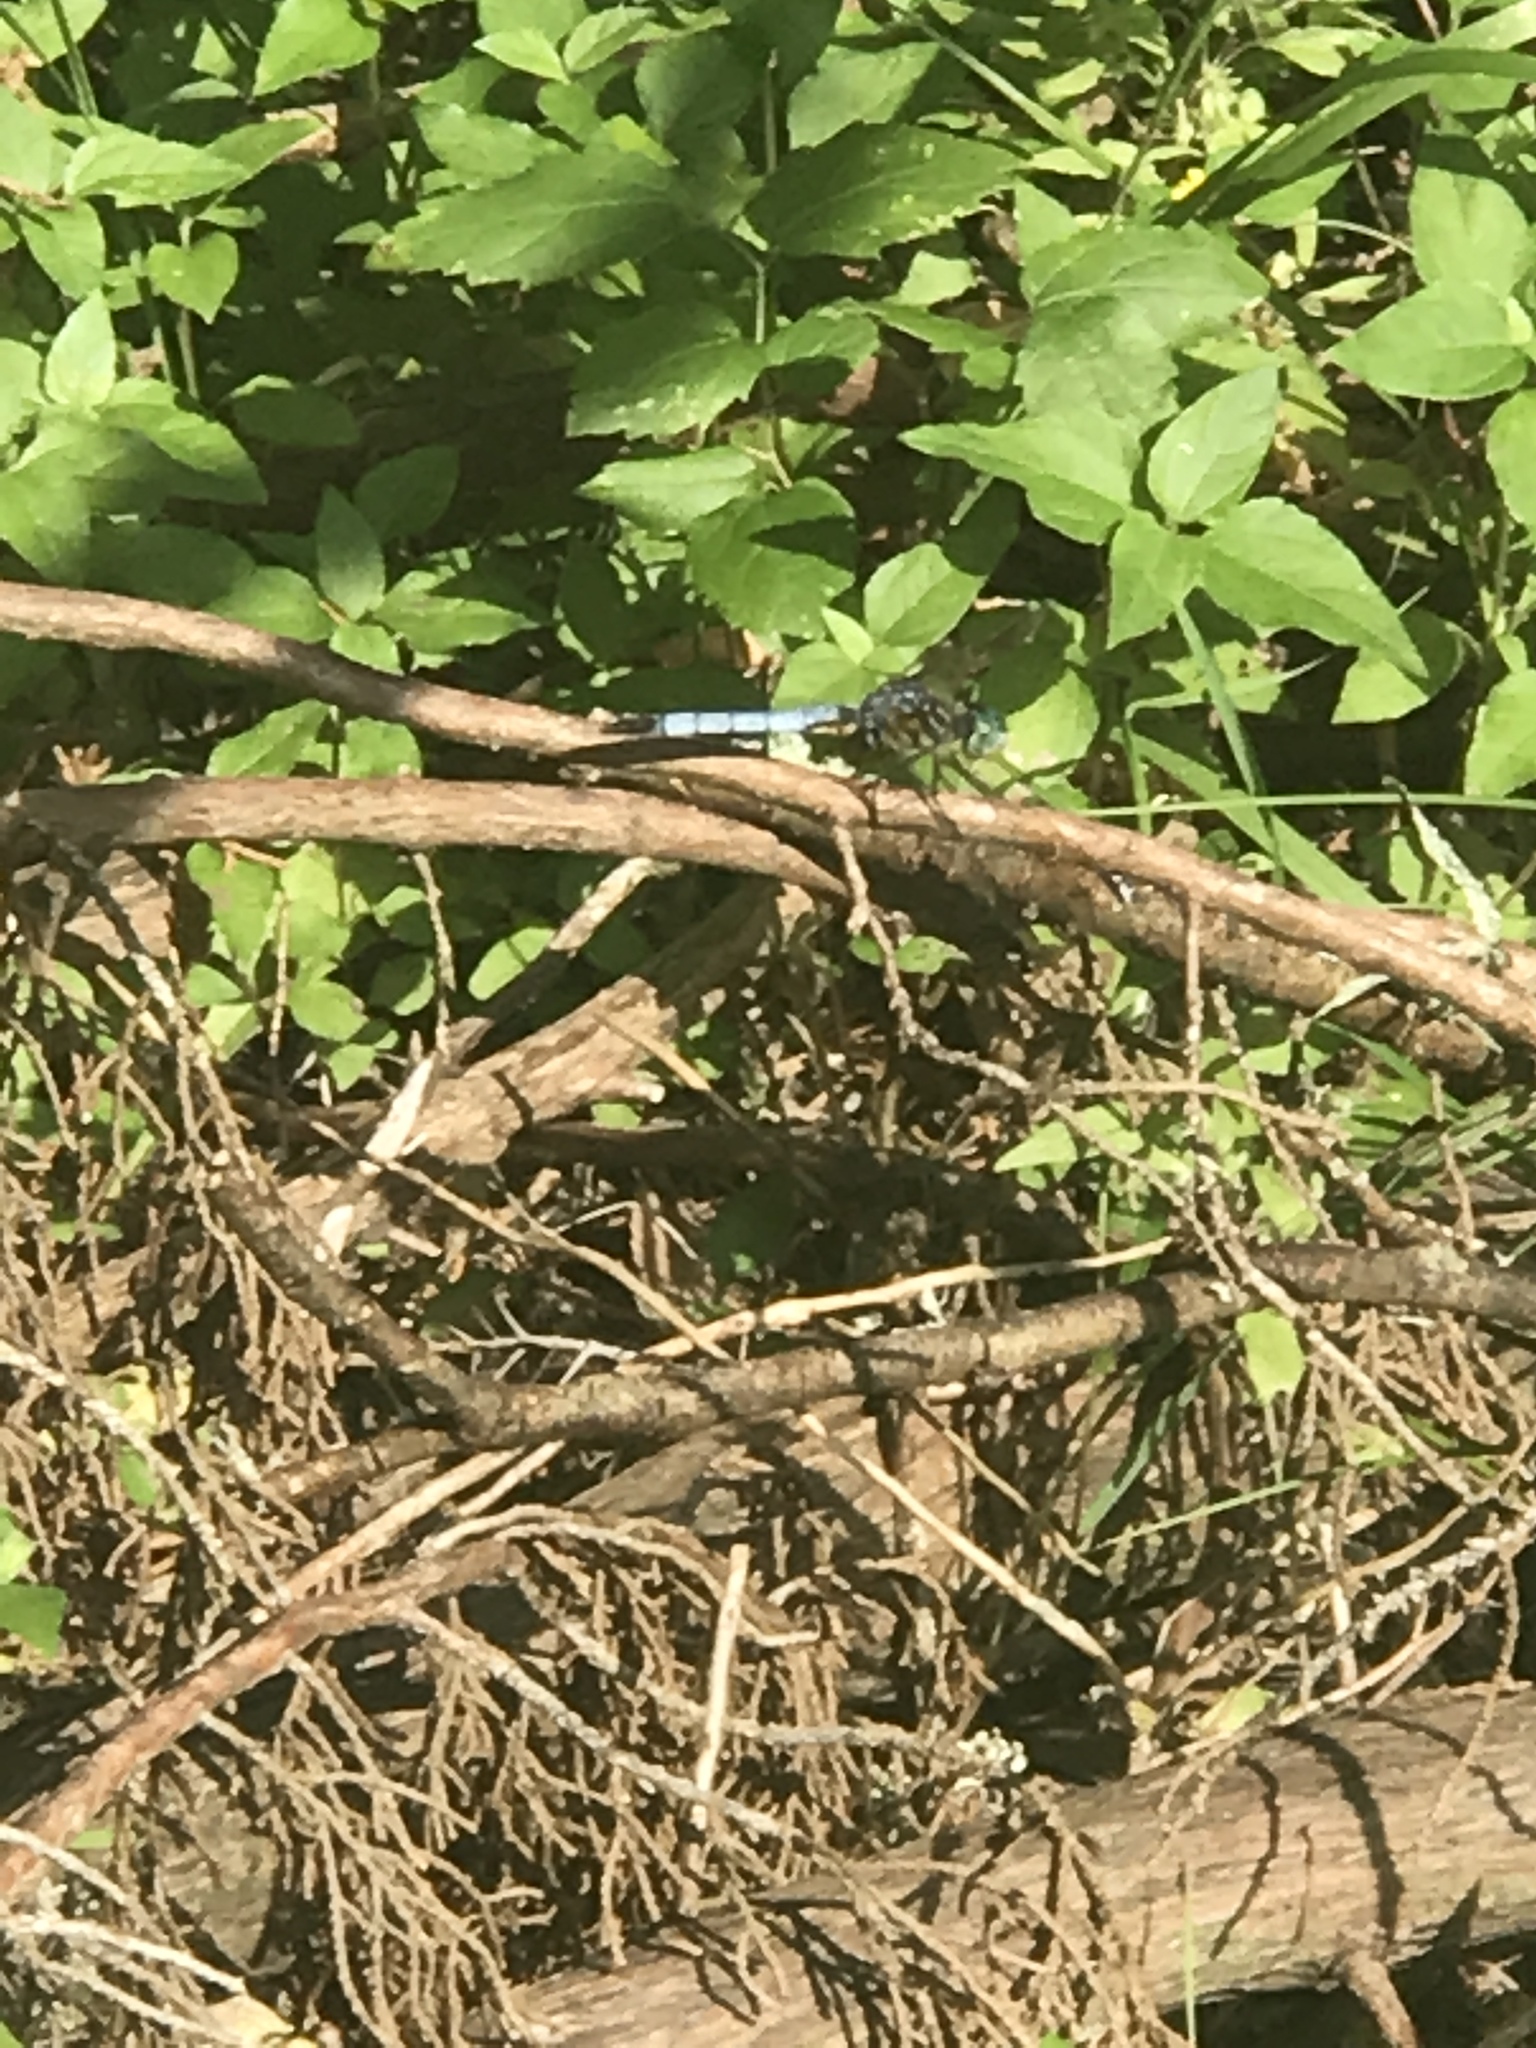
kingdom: Animalia
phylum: Arthropoda
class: Insecta
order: Odonata
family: Libellulidae
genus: Pachydiplax
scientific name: Pachydiplax longipennis
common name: Blue dasher
